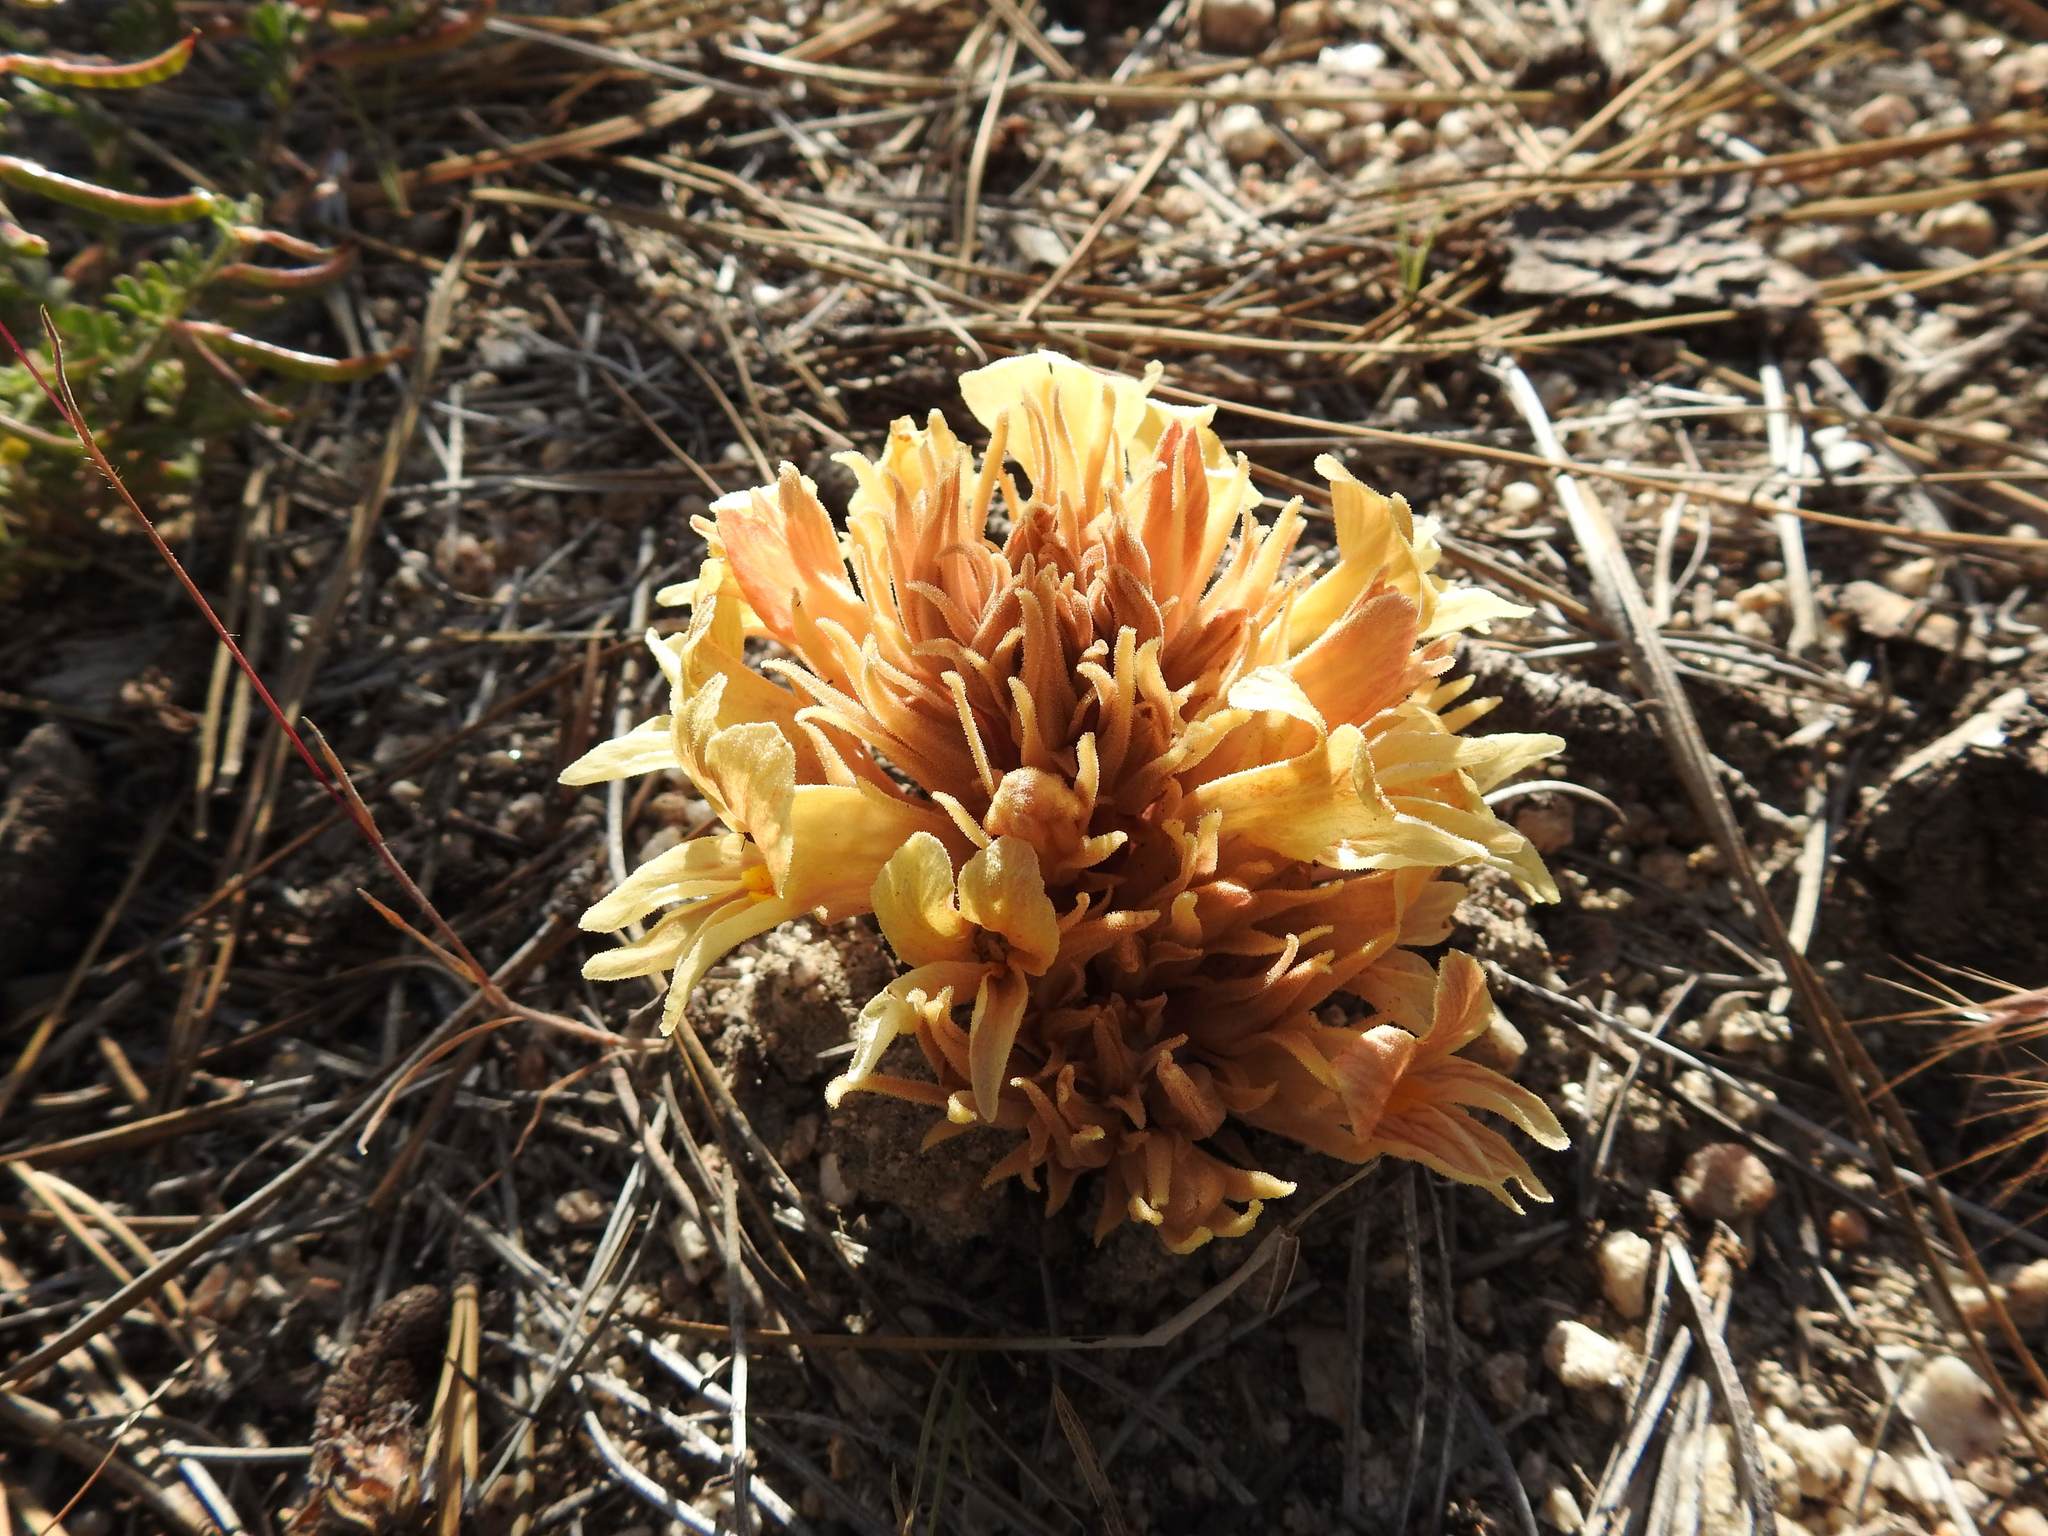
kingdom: Plantae
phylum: Tracheophyta
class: Magnoliopsida
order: Lamiales
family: Orobanchaceae
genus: Aphyllon
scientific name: Aphyllon californicum
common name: California broomrape
